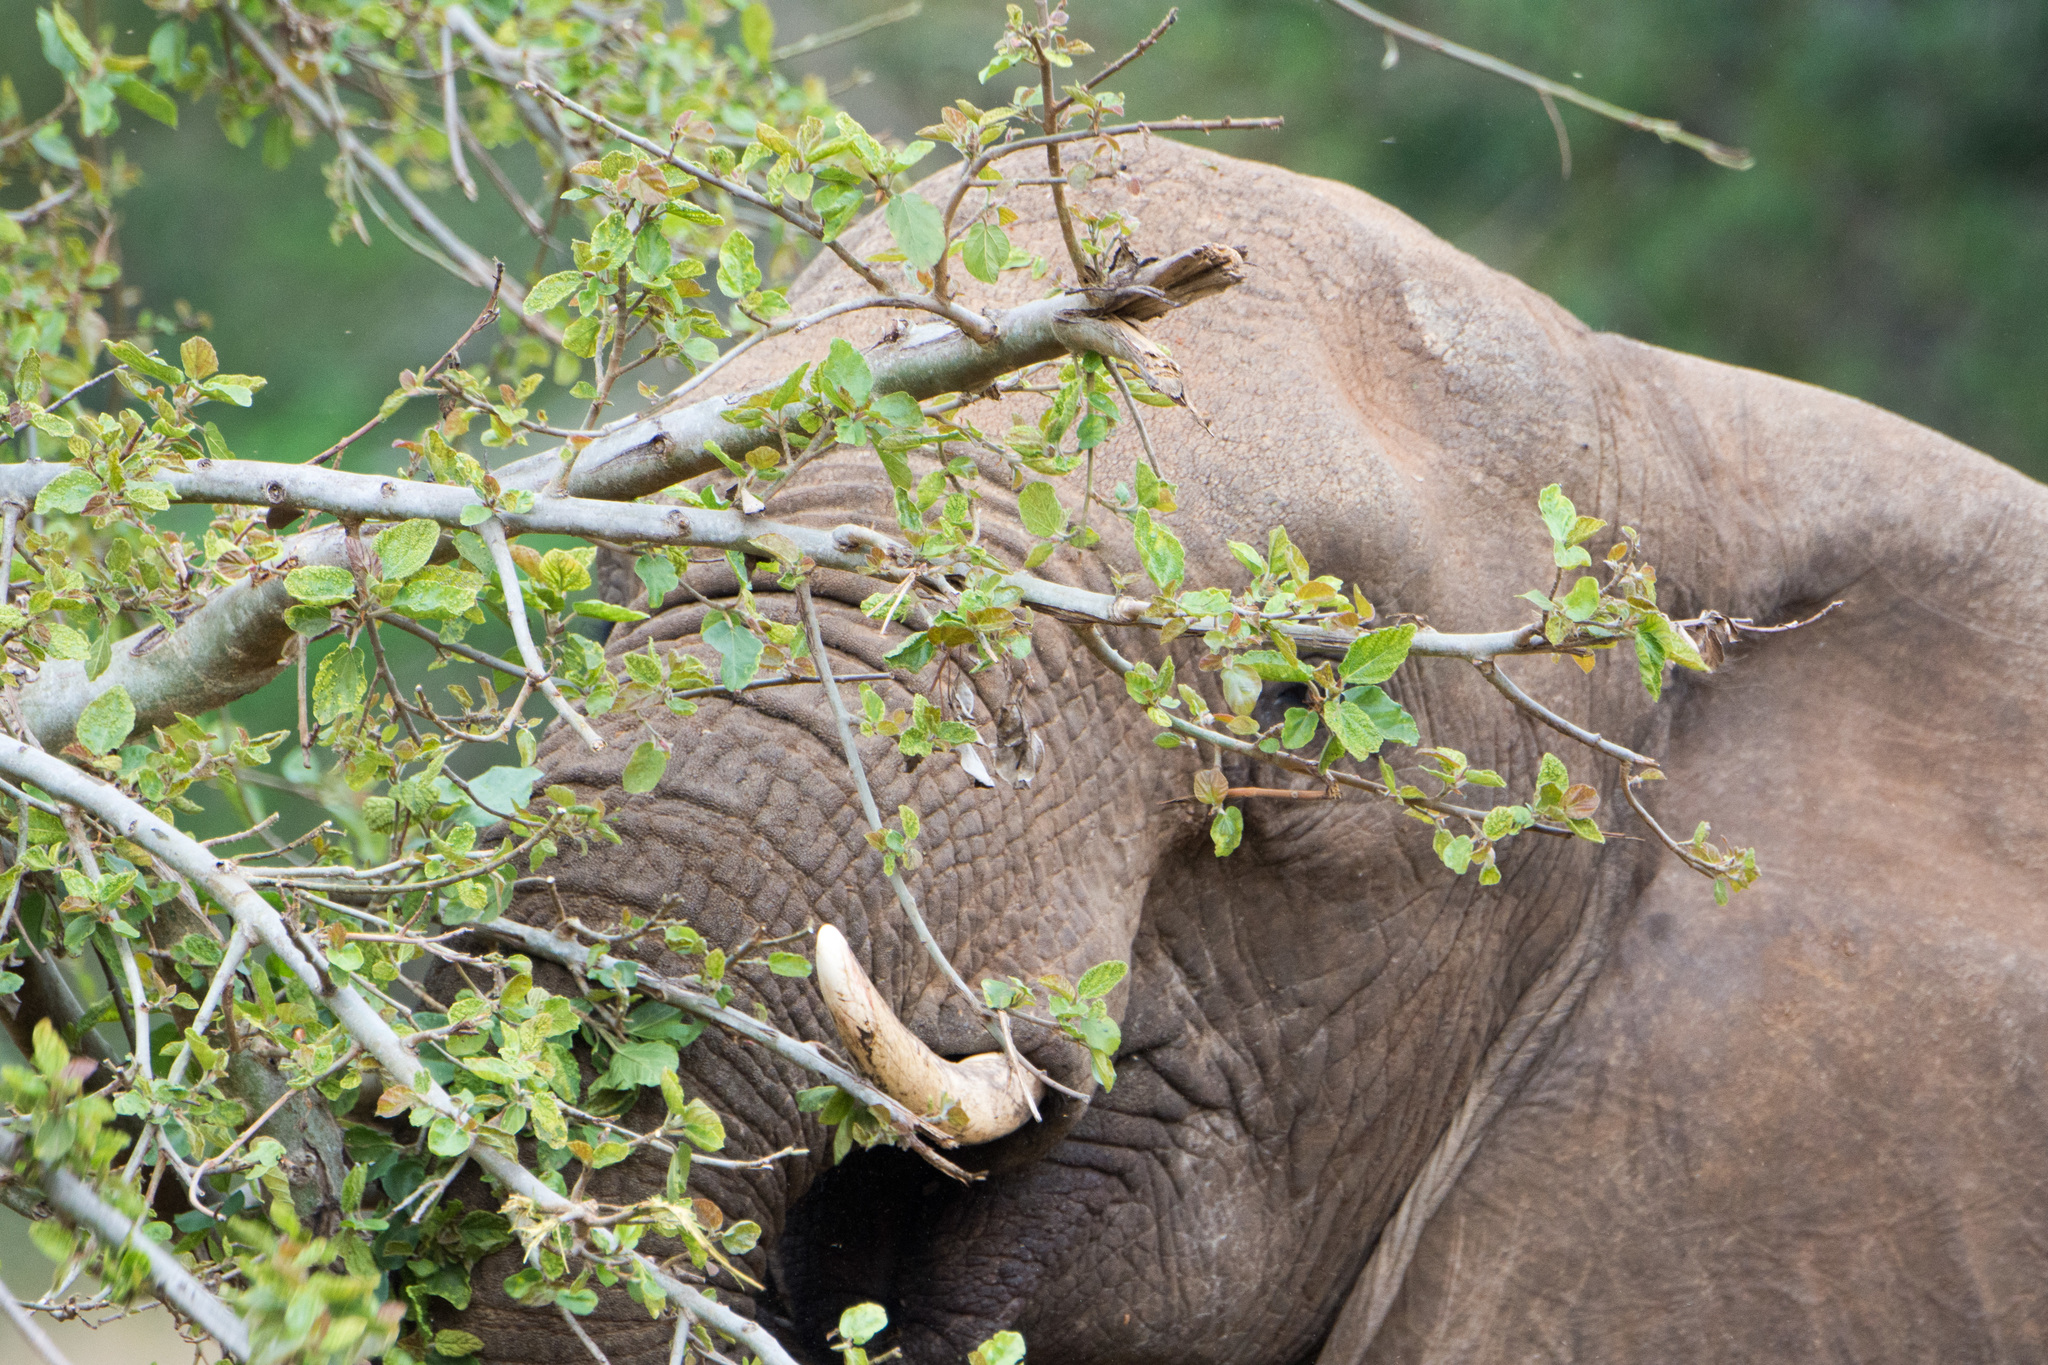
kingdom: Animalia
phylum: Chordata
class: Mammalia
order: Proboscidea
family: Elephantidae
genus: Loxodonta
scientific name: Loxodonta africana
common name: African elephant
